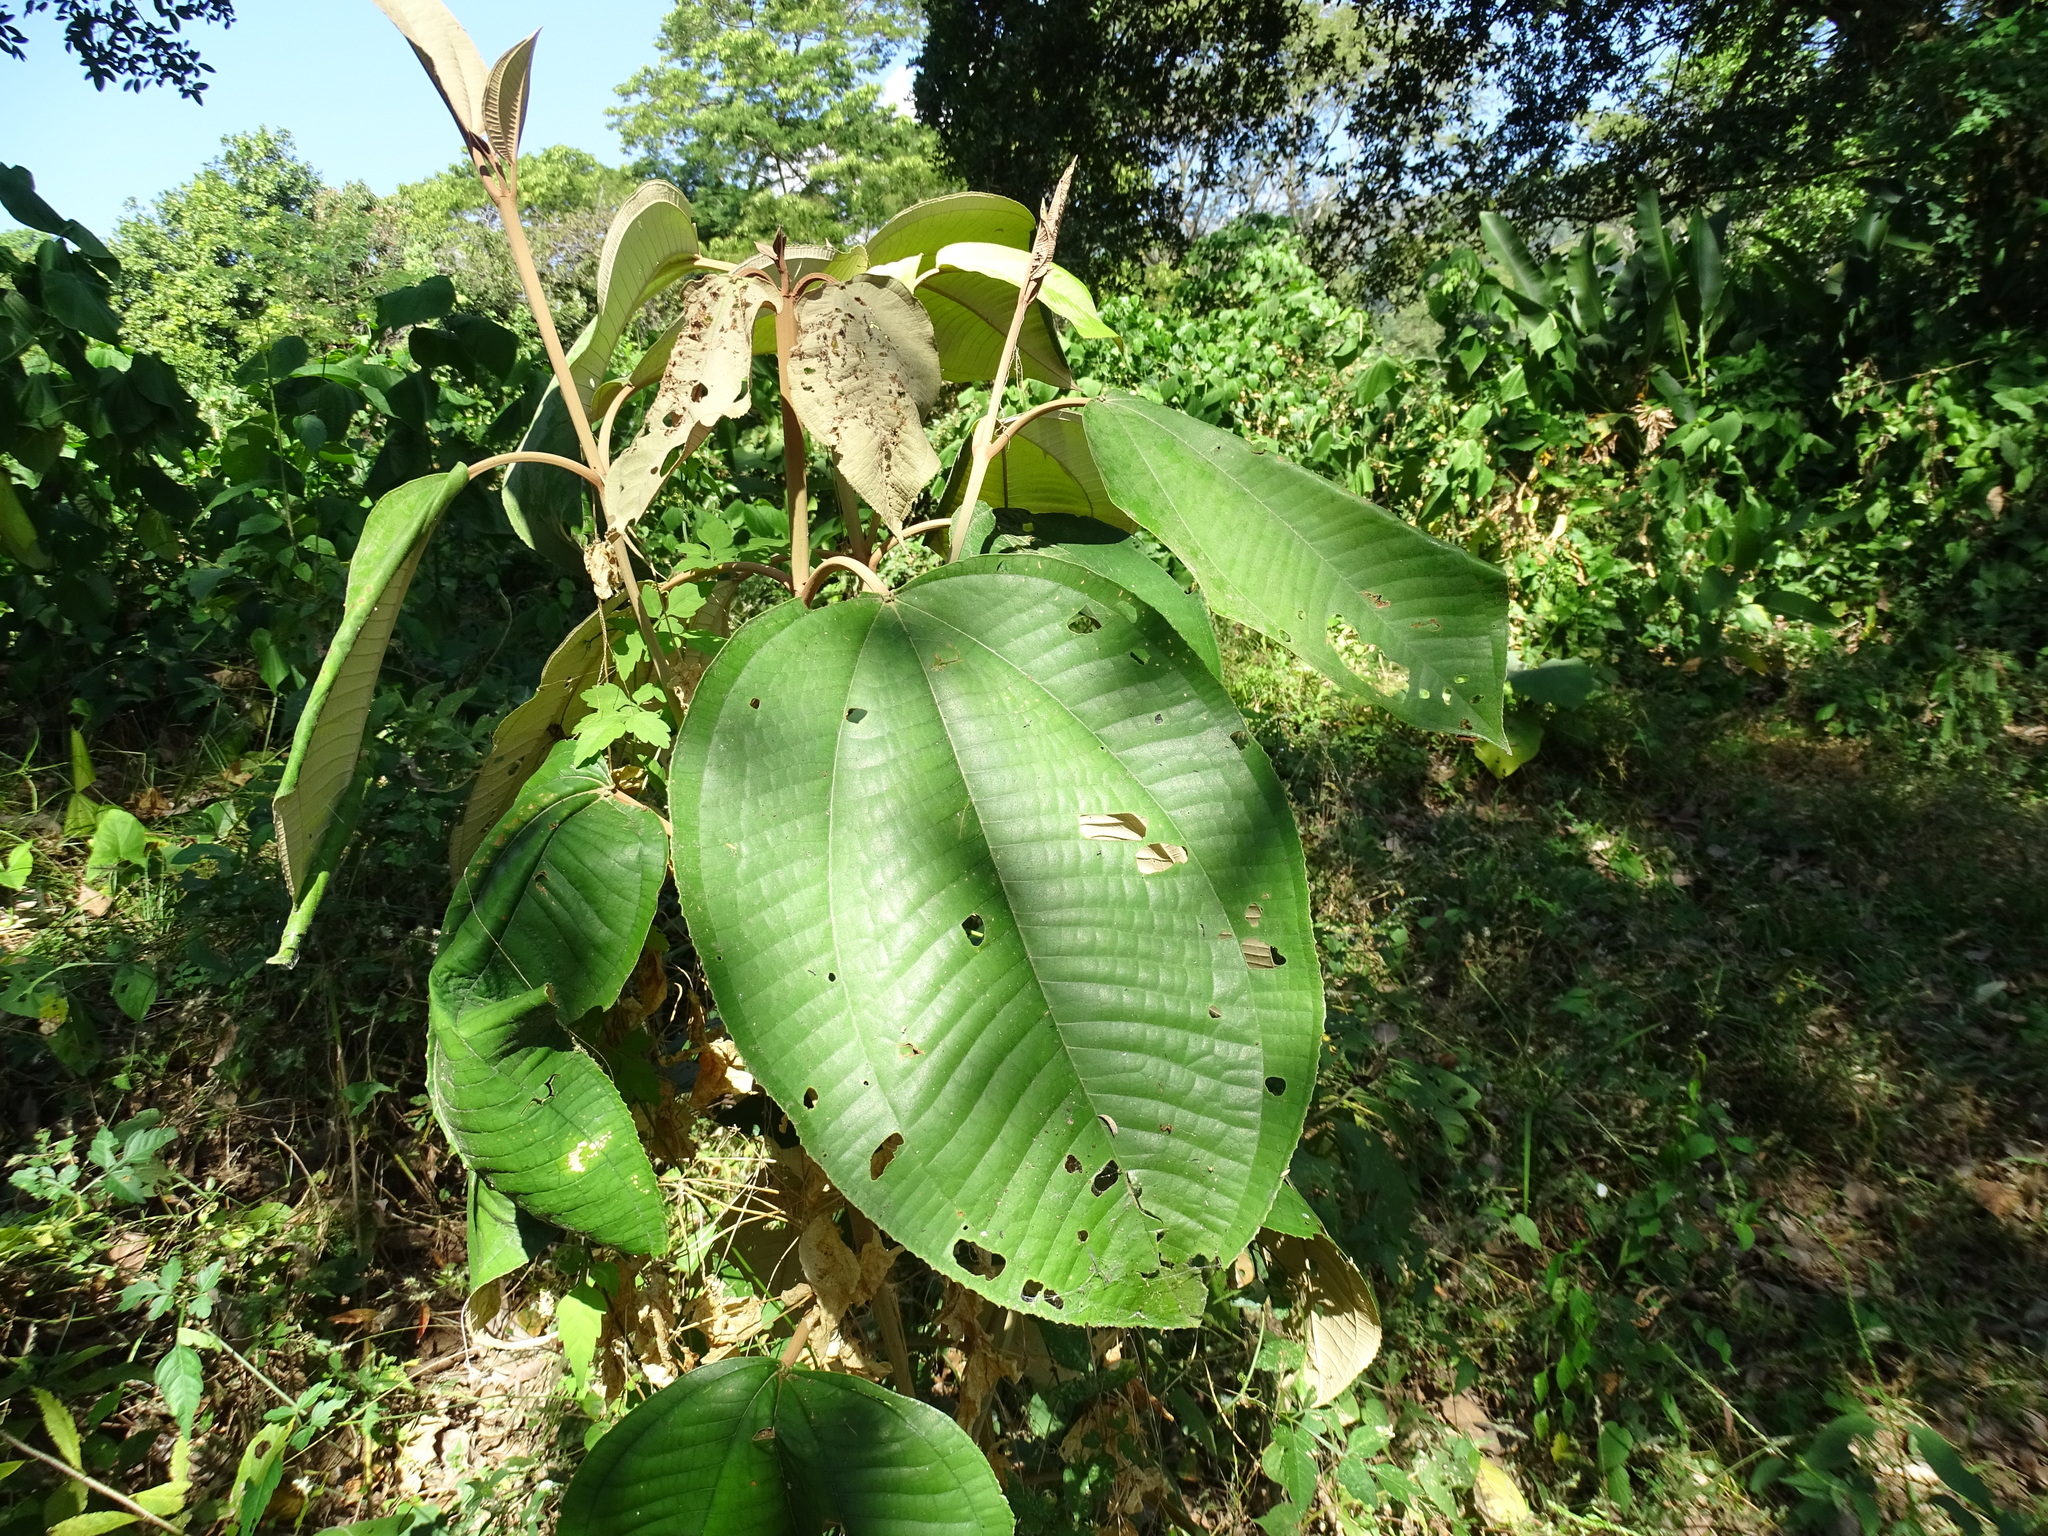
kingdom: Plantae
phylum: Tracheophyta
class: Magnoliopsida
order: Myrtales
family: Melastomataceae
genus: Miconia
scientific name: Miconia argentea
